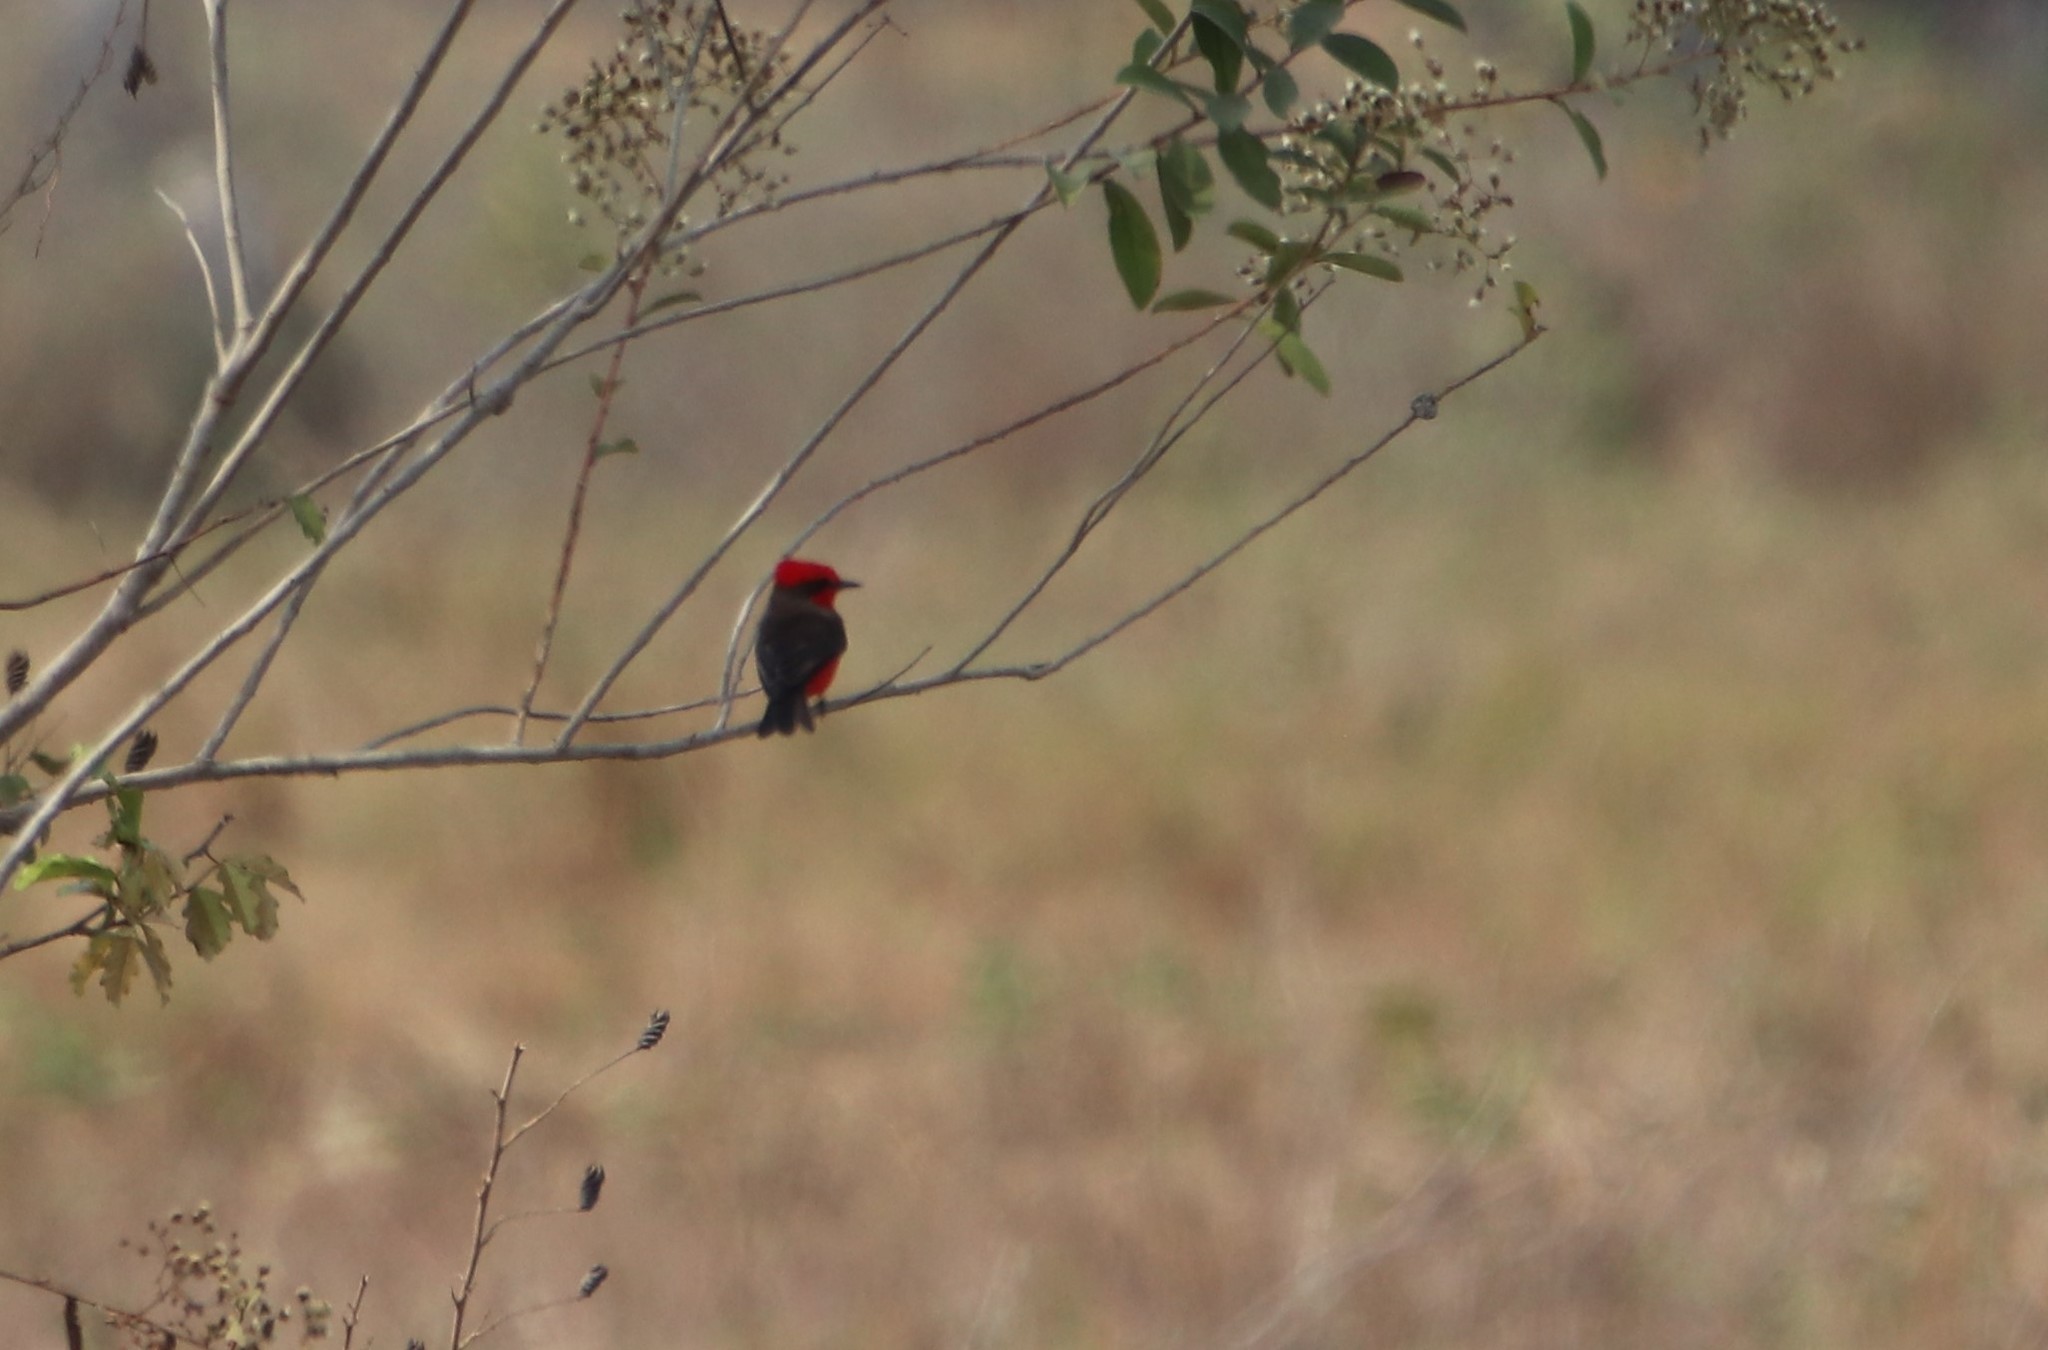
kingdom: Animalia
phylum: Chordata
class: Aves
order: Passeriformes
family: Tyrannidae
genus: Pyrocephalus
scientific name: Pyrocephalus rubinus
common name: Vermilion flycatcher
